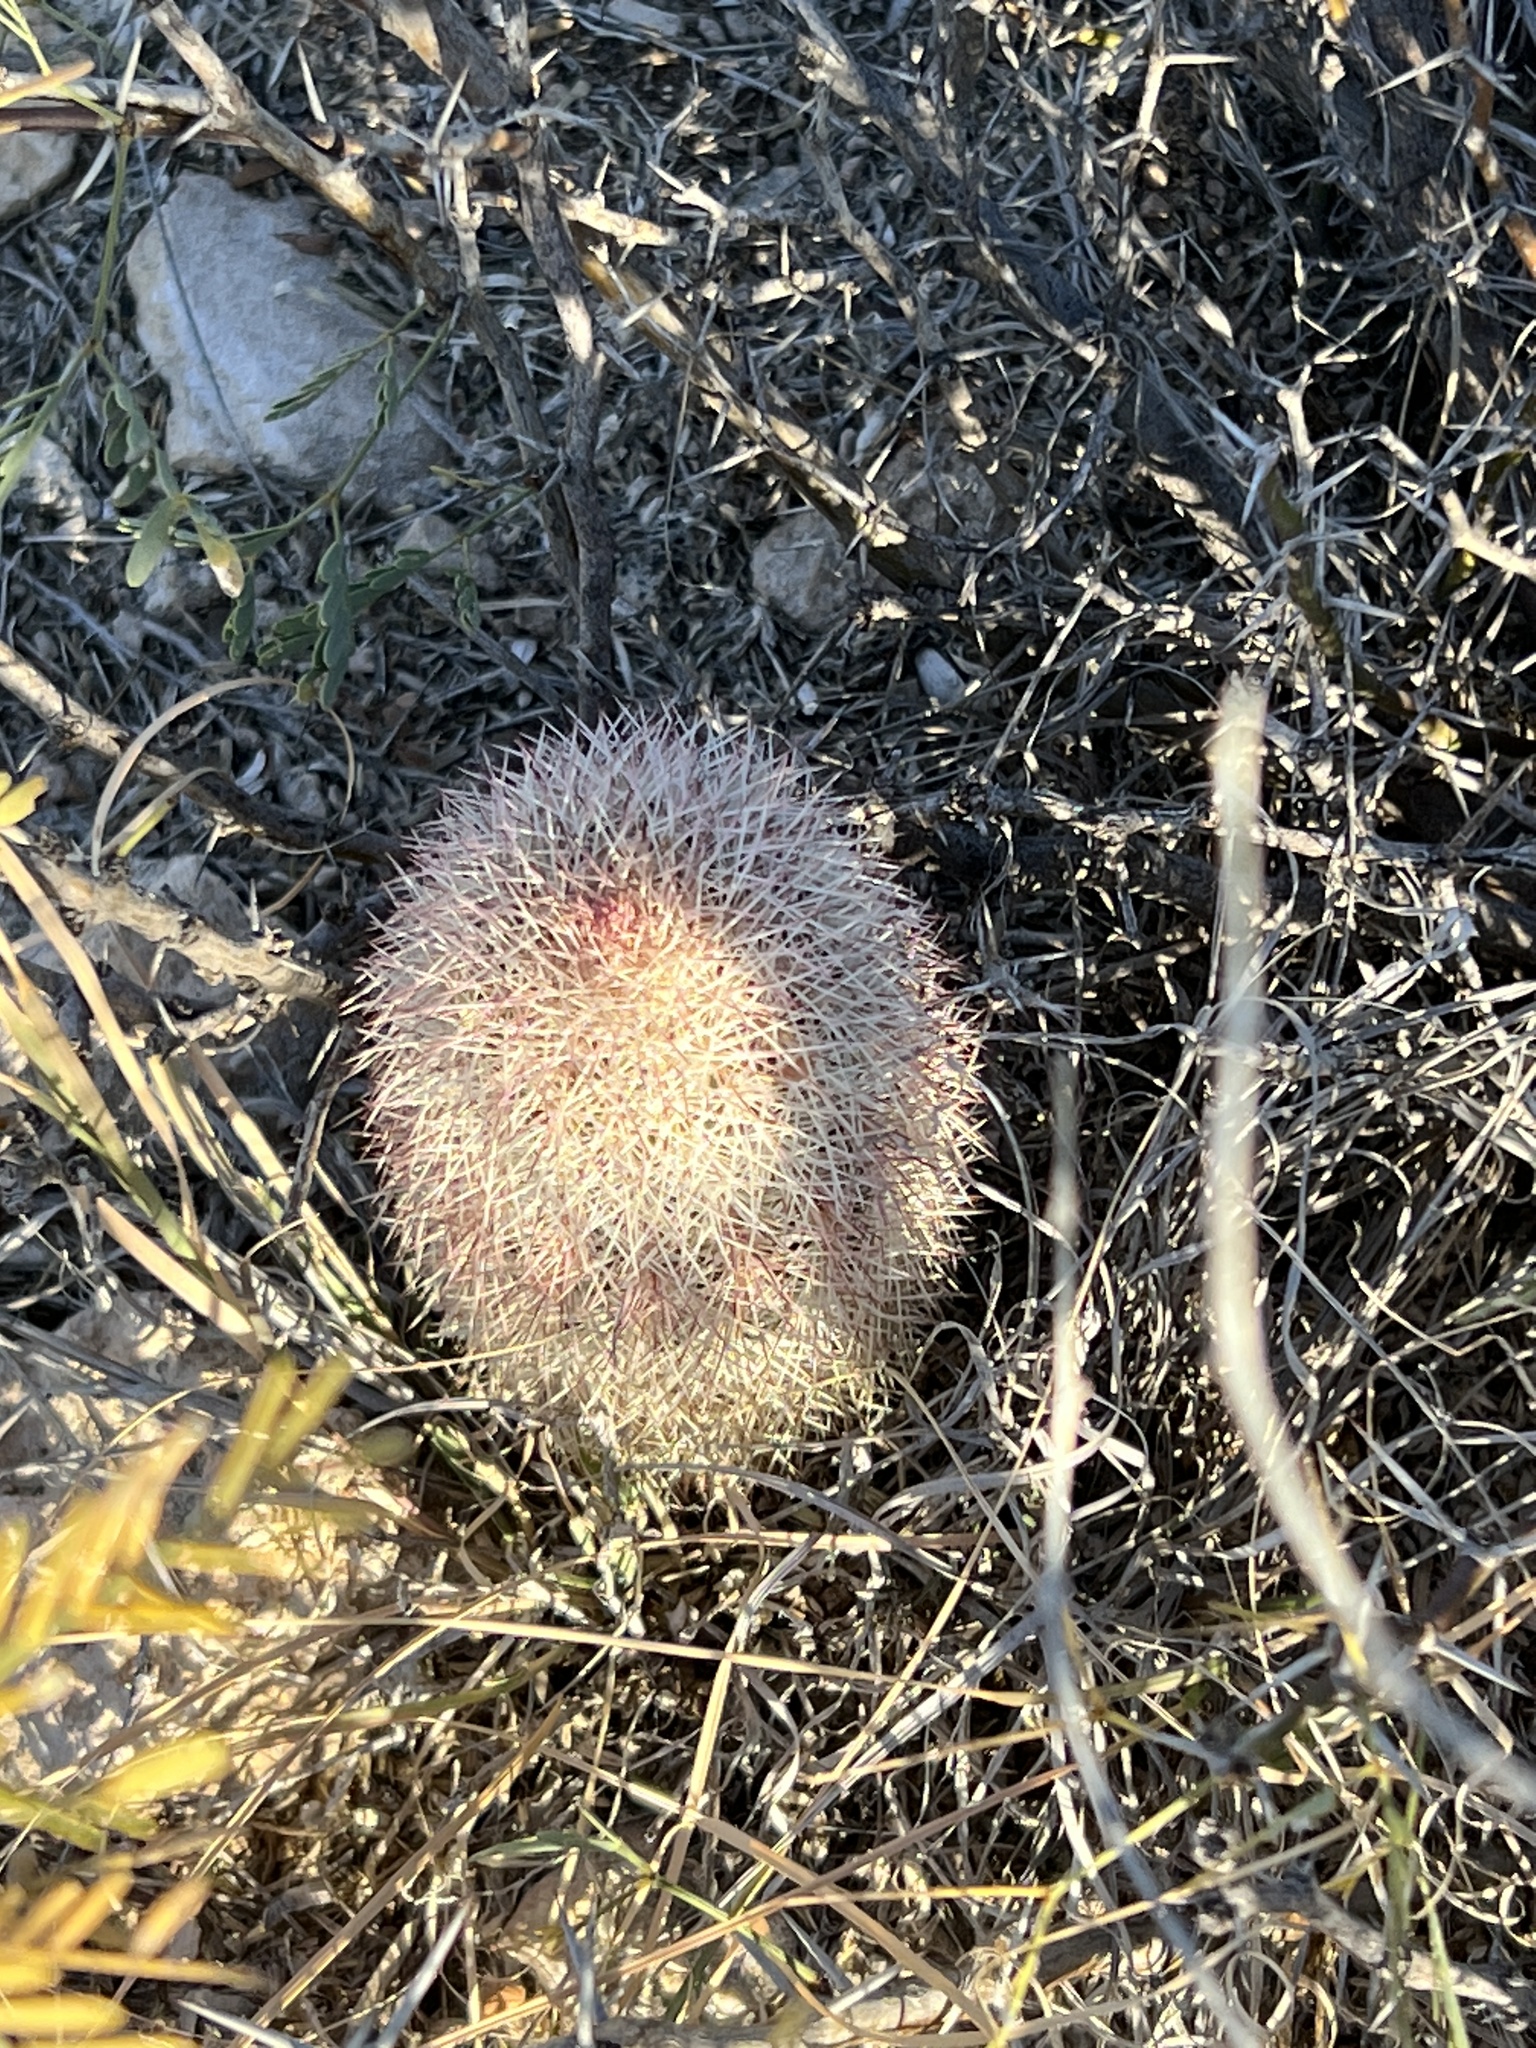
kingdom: Plantae
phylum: Tracheophyta
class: Magnoliopsida
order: Caryophyllales
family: Cactaceae
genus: Echinocereus
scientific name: Echinocereus dasyacanthus
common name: Spiny hedgehog cactus
